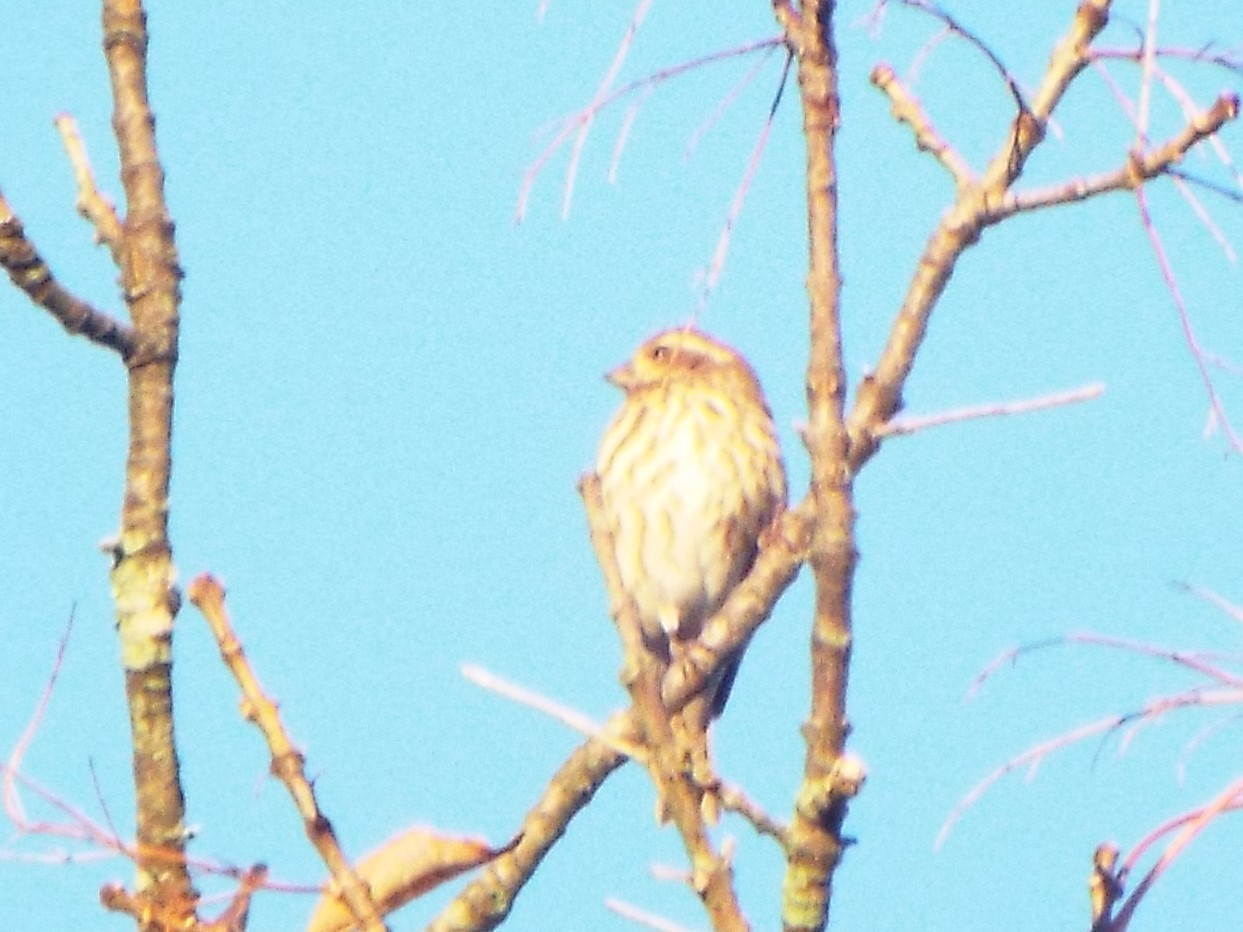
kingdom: Animalia
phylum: Chordata
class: Aves
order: Passeriformes
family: Fringillidae
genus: Haemorhous
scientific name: Haemorhous purpureus
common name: Purple finch
